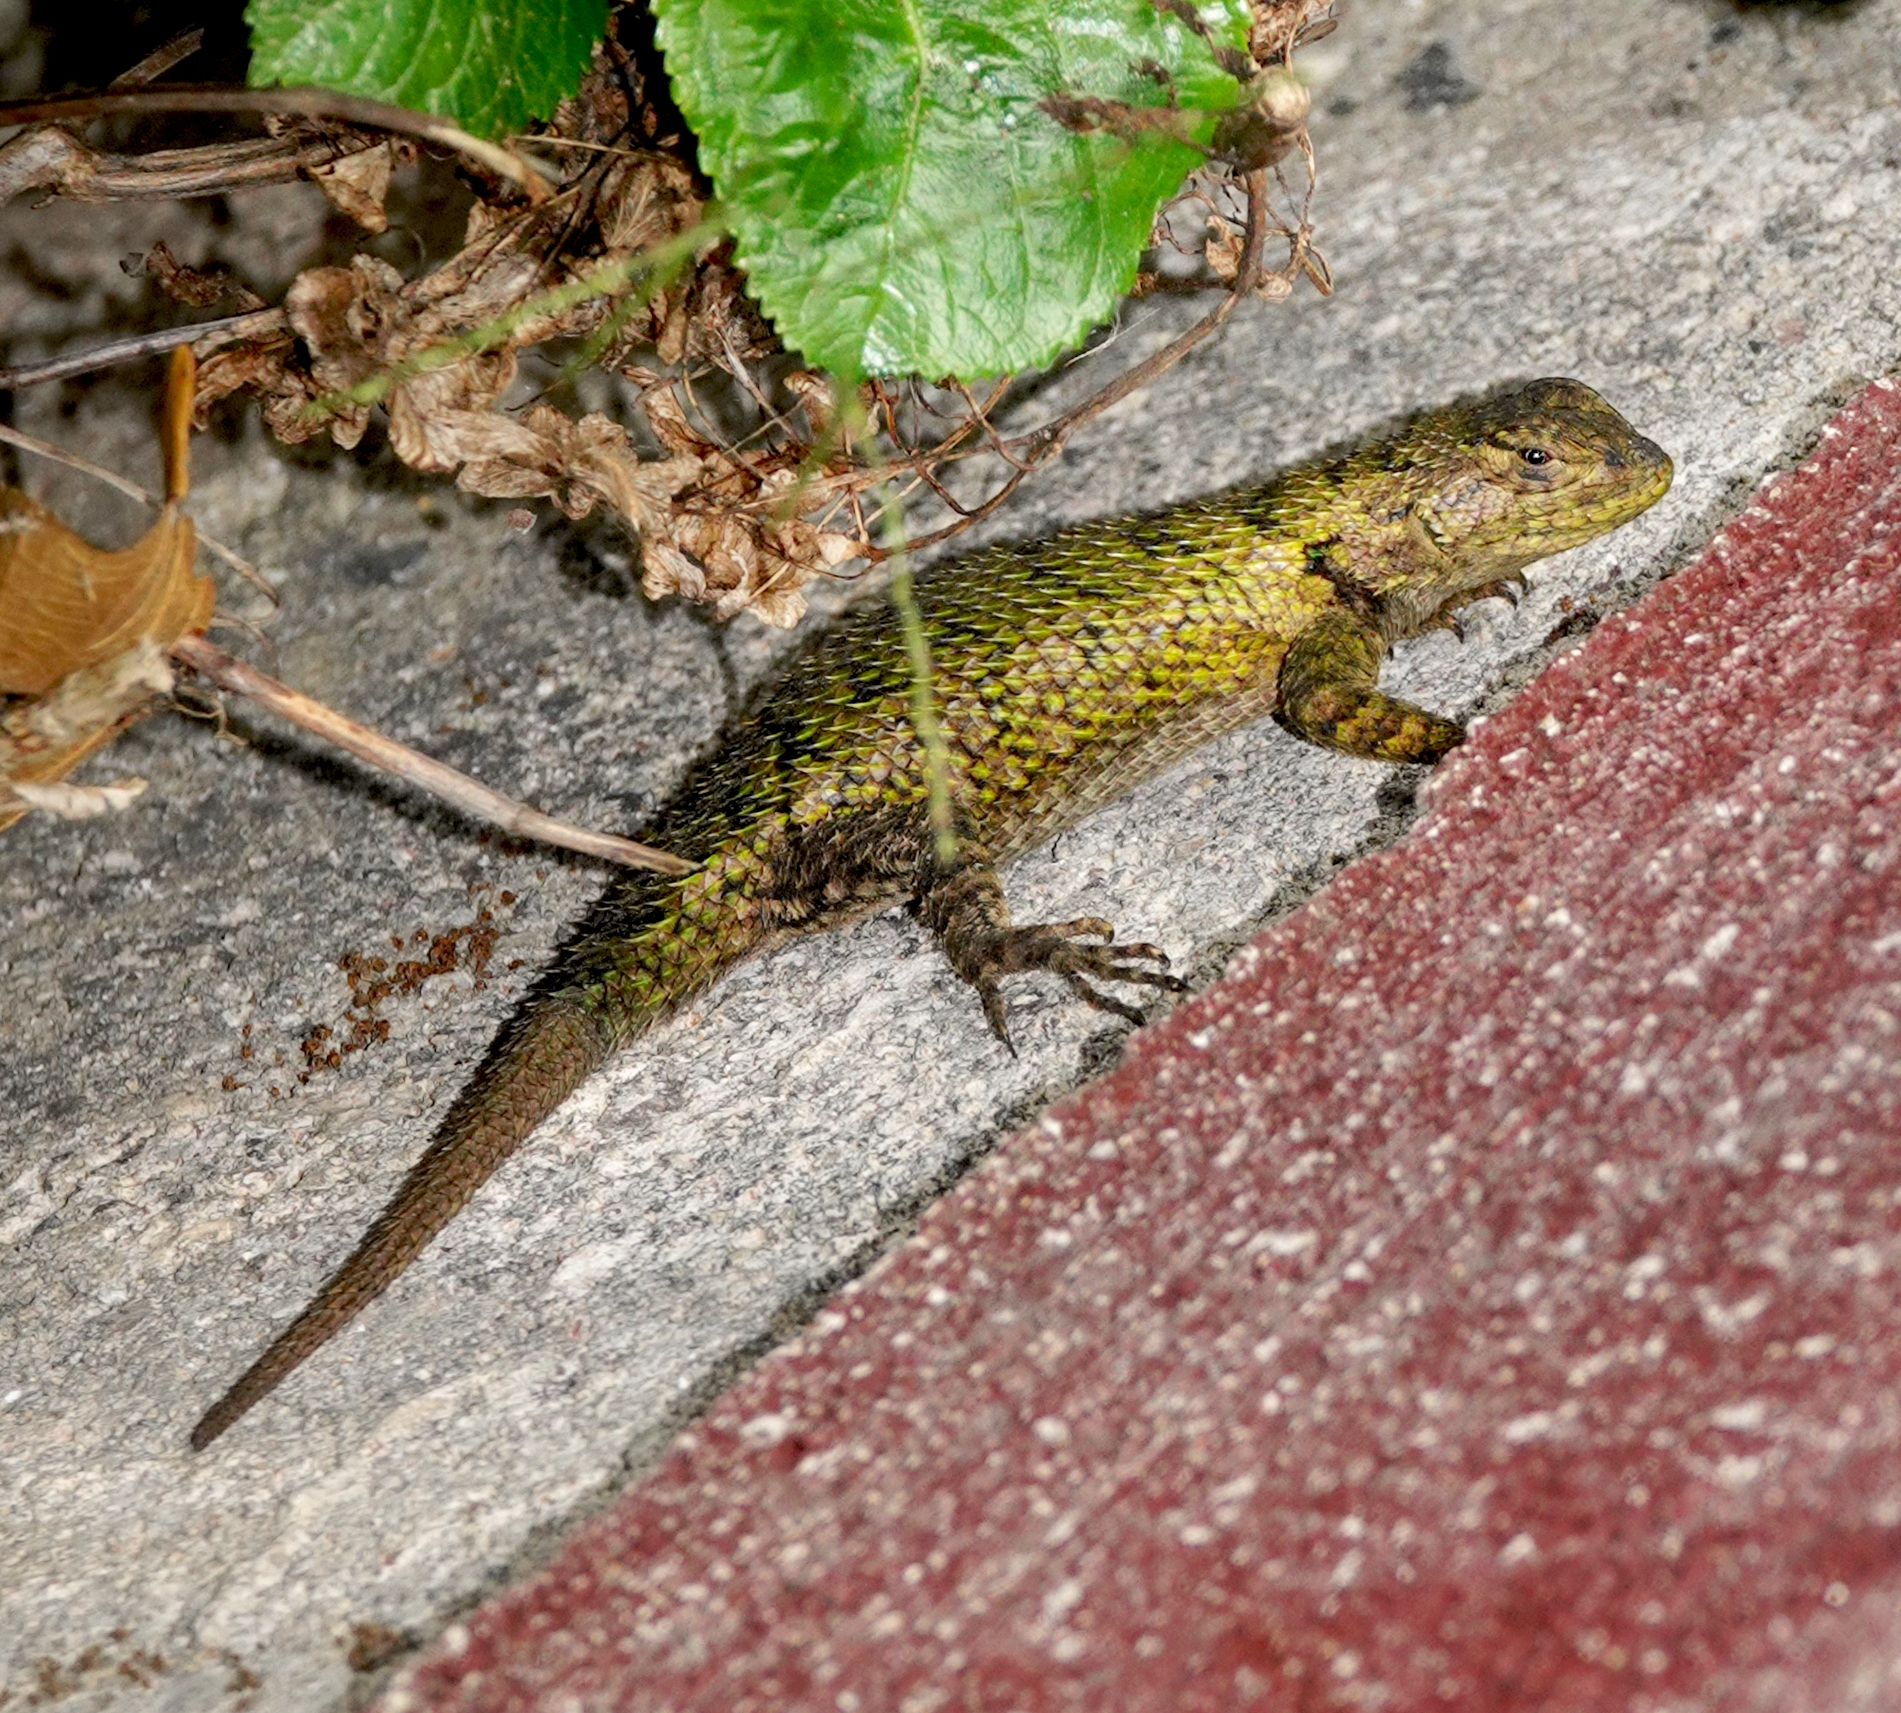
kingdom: Animalia
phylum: Chordata
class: Squamata
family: Phrynosomatidae
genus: Sceloporus
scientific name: Sceloporus hondurensis
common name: Honduran spiny lizard
